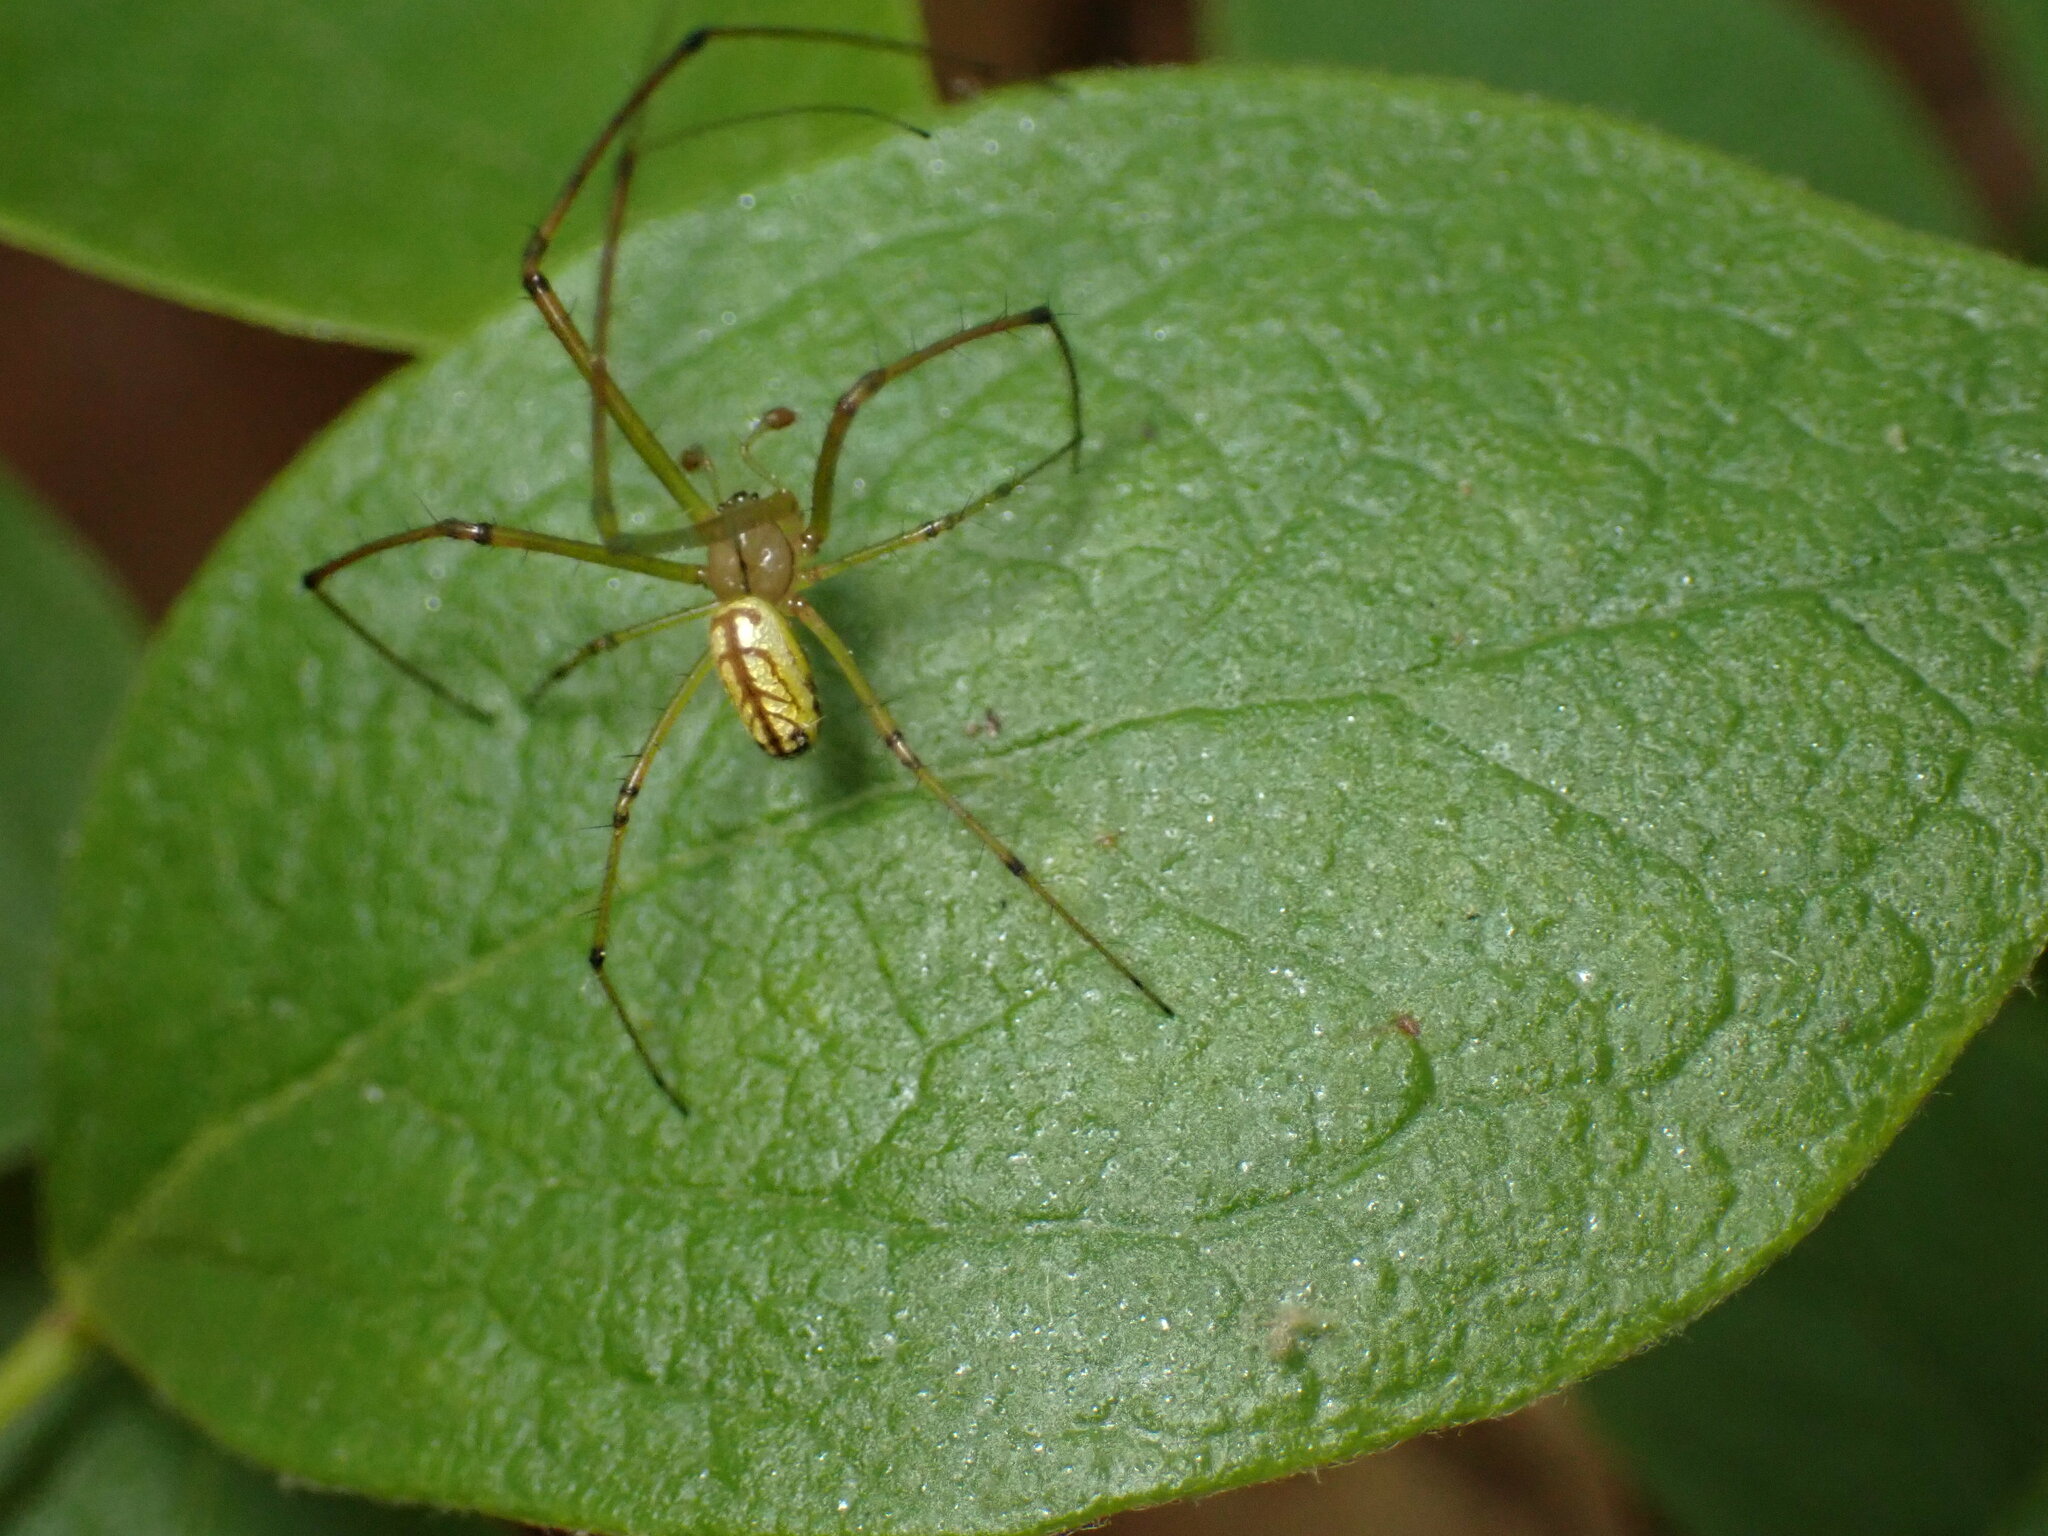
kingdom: Animalia
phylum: Arthropoda
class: Arachnida
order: Araneae
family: Tetragnathidae
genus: Leucauge
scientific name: Leucauge venusta
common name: Longjawed orb weavers
